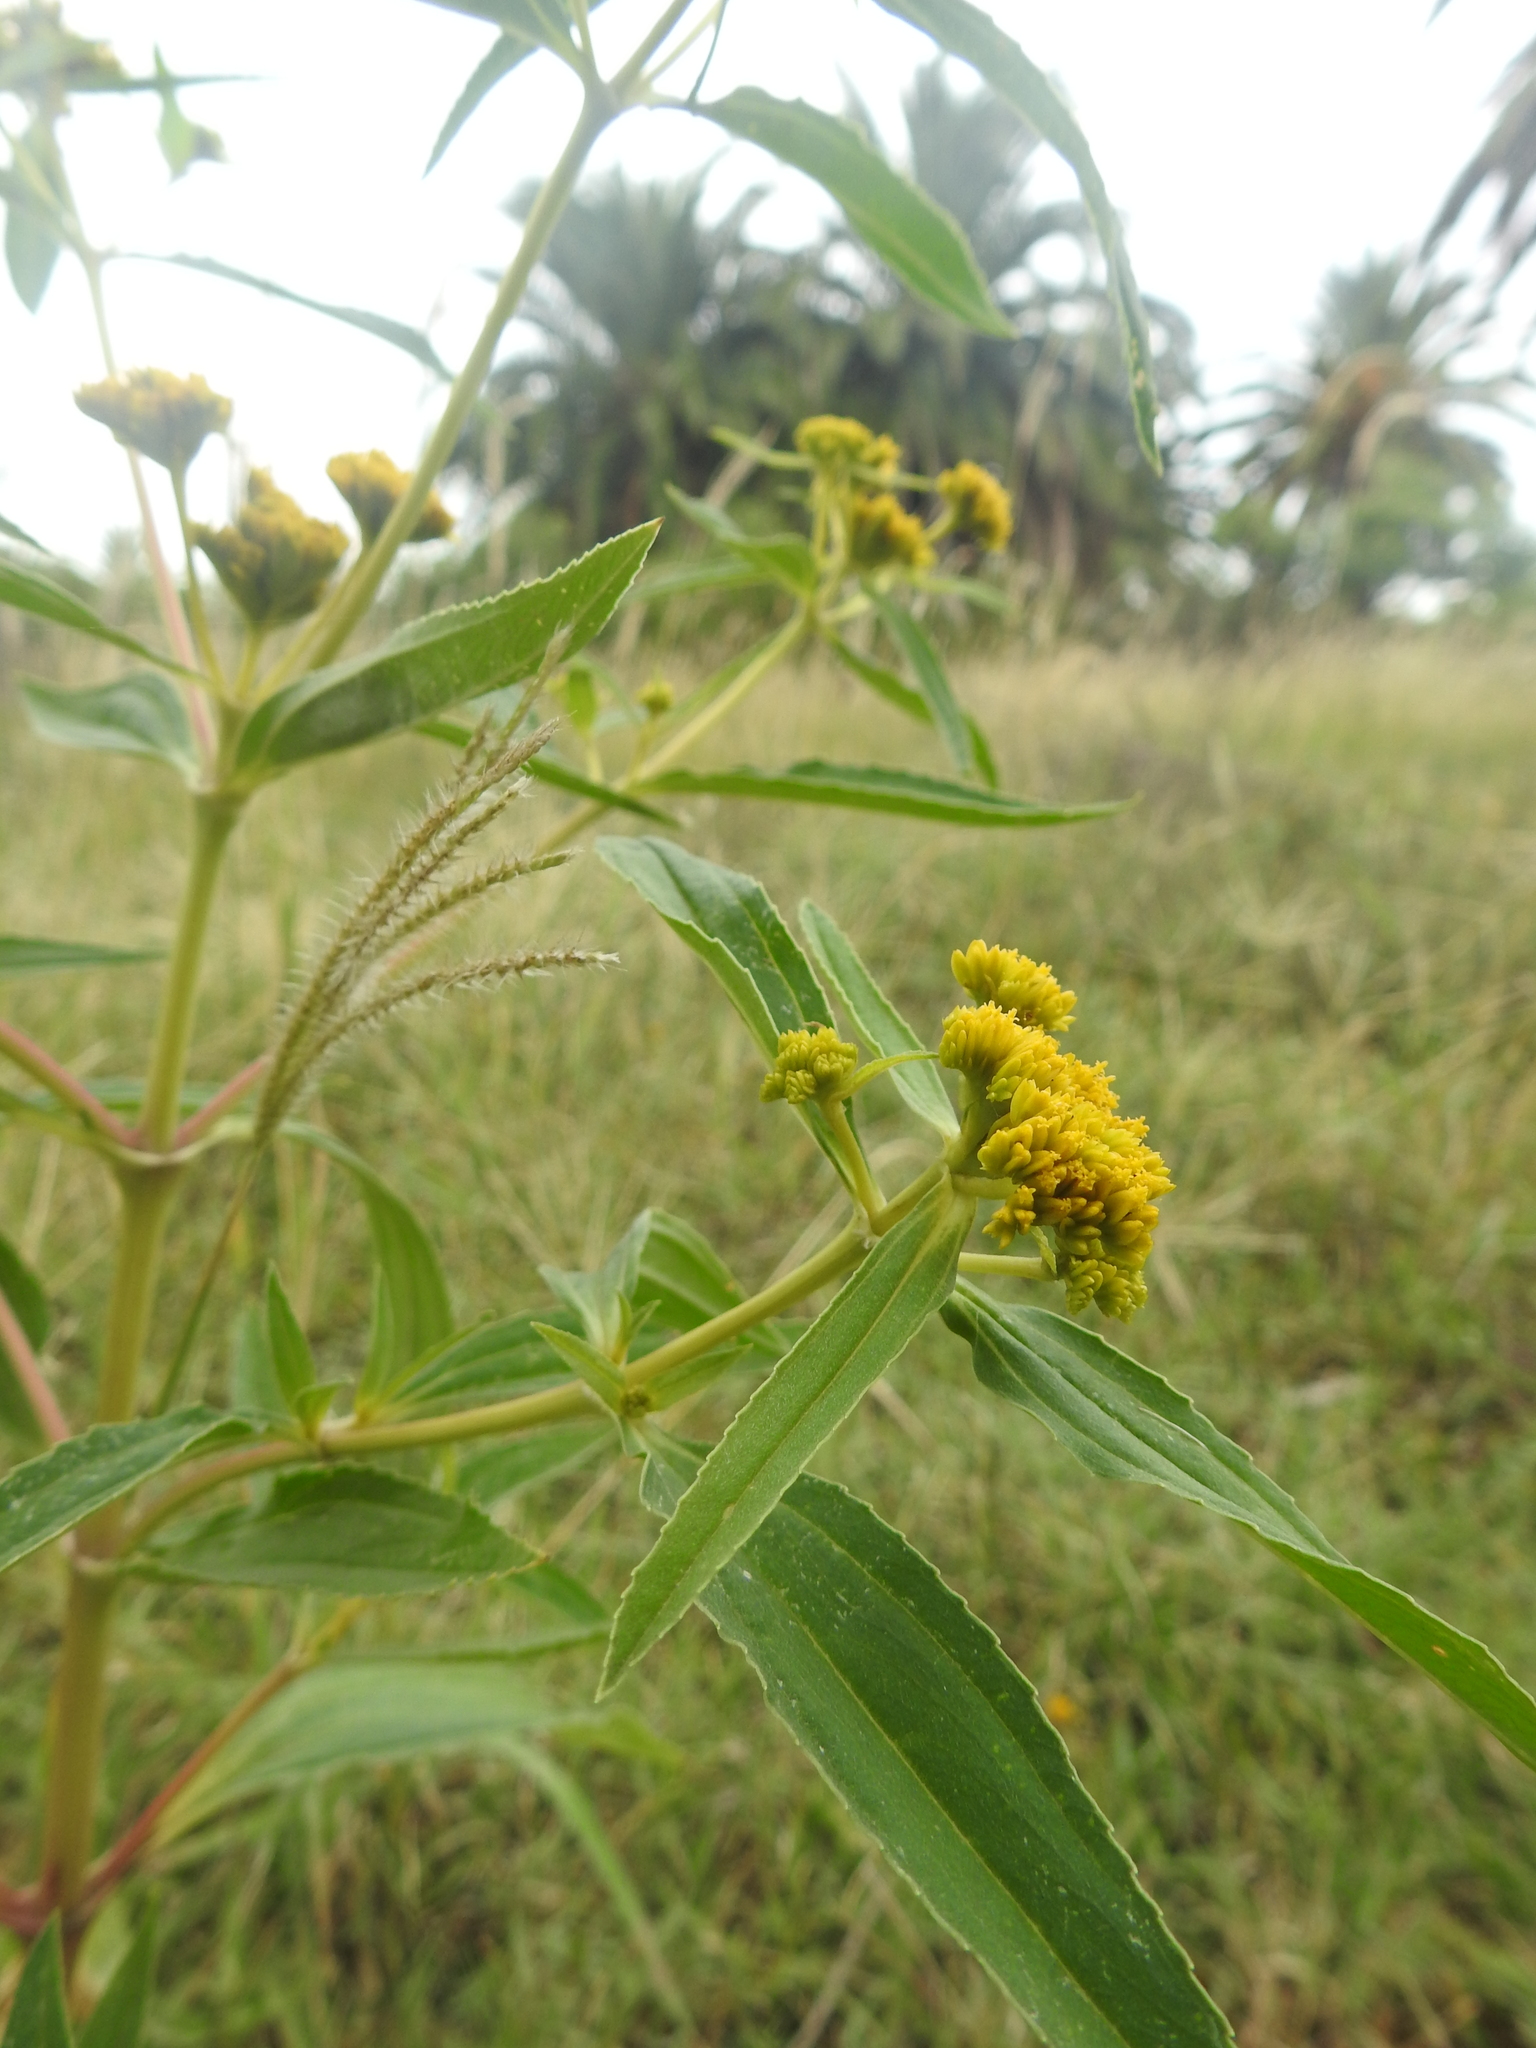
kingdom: Plantae
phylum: Tracheophyta
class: Magnoliopsida
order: Asterales
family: Asteraceae
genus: Flaveria
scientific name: Flaveria bidentis
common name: Coastal plain yellowtops
